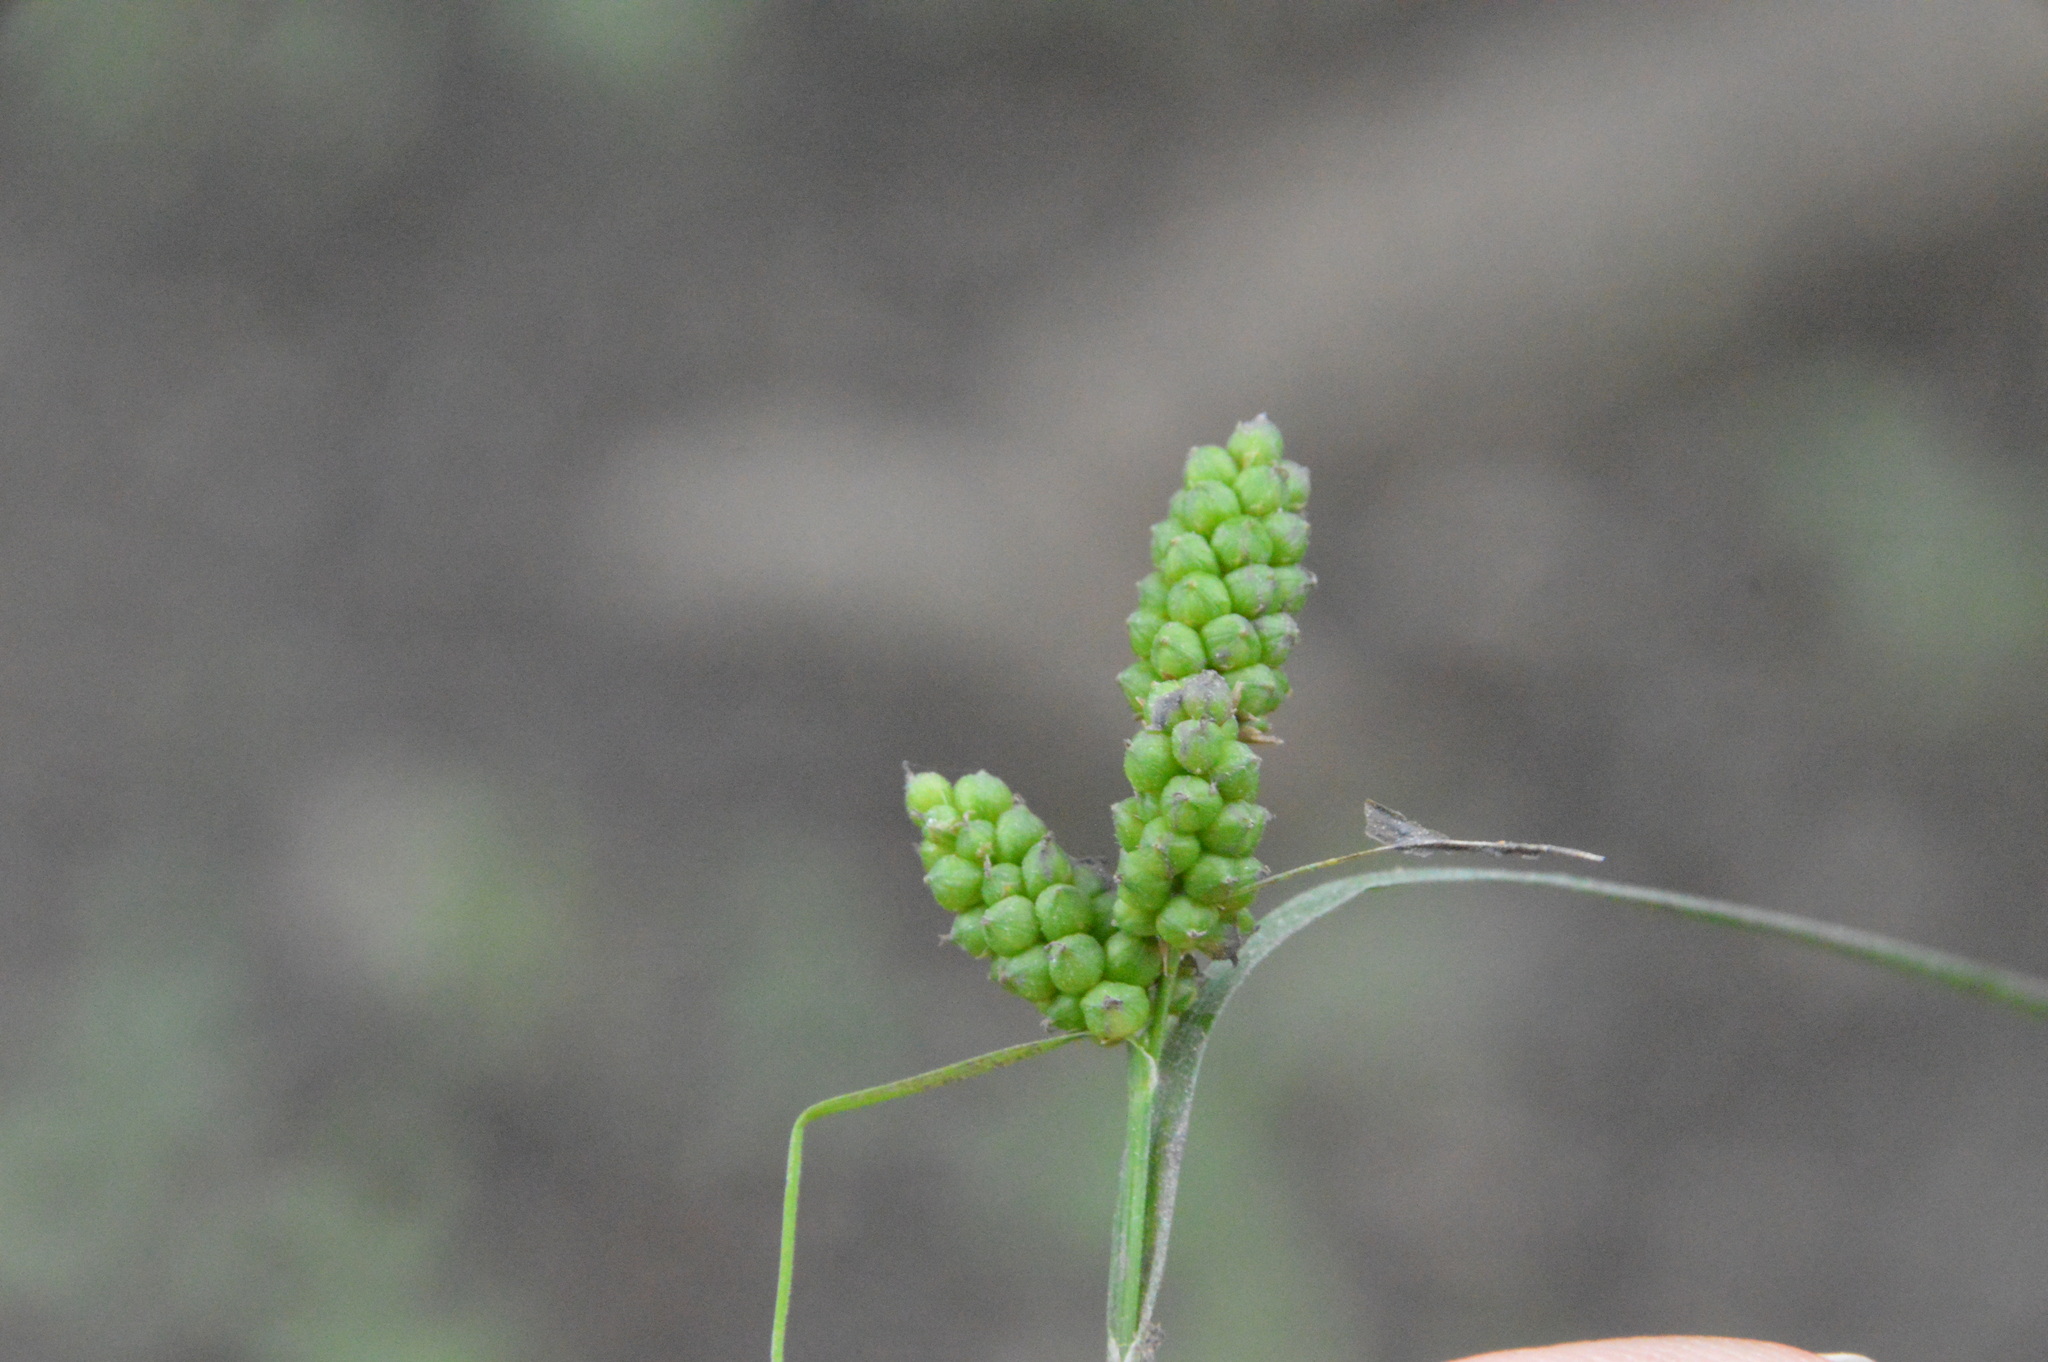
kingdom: Plantae
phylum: Tracheophyta
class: Liliopsida
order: Poales
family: Cyperaceae
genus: Carex
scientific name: Carex caroliniana
